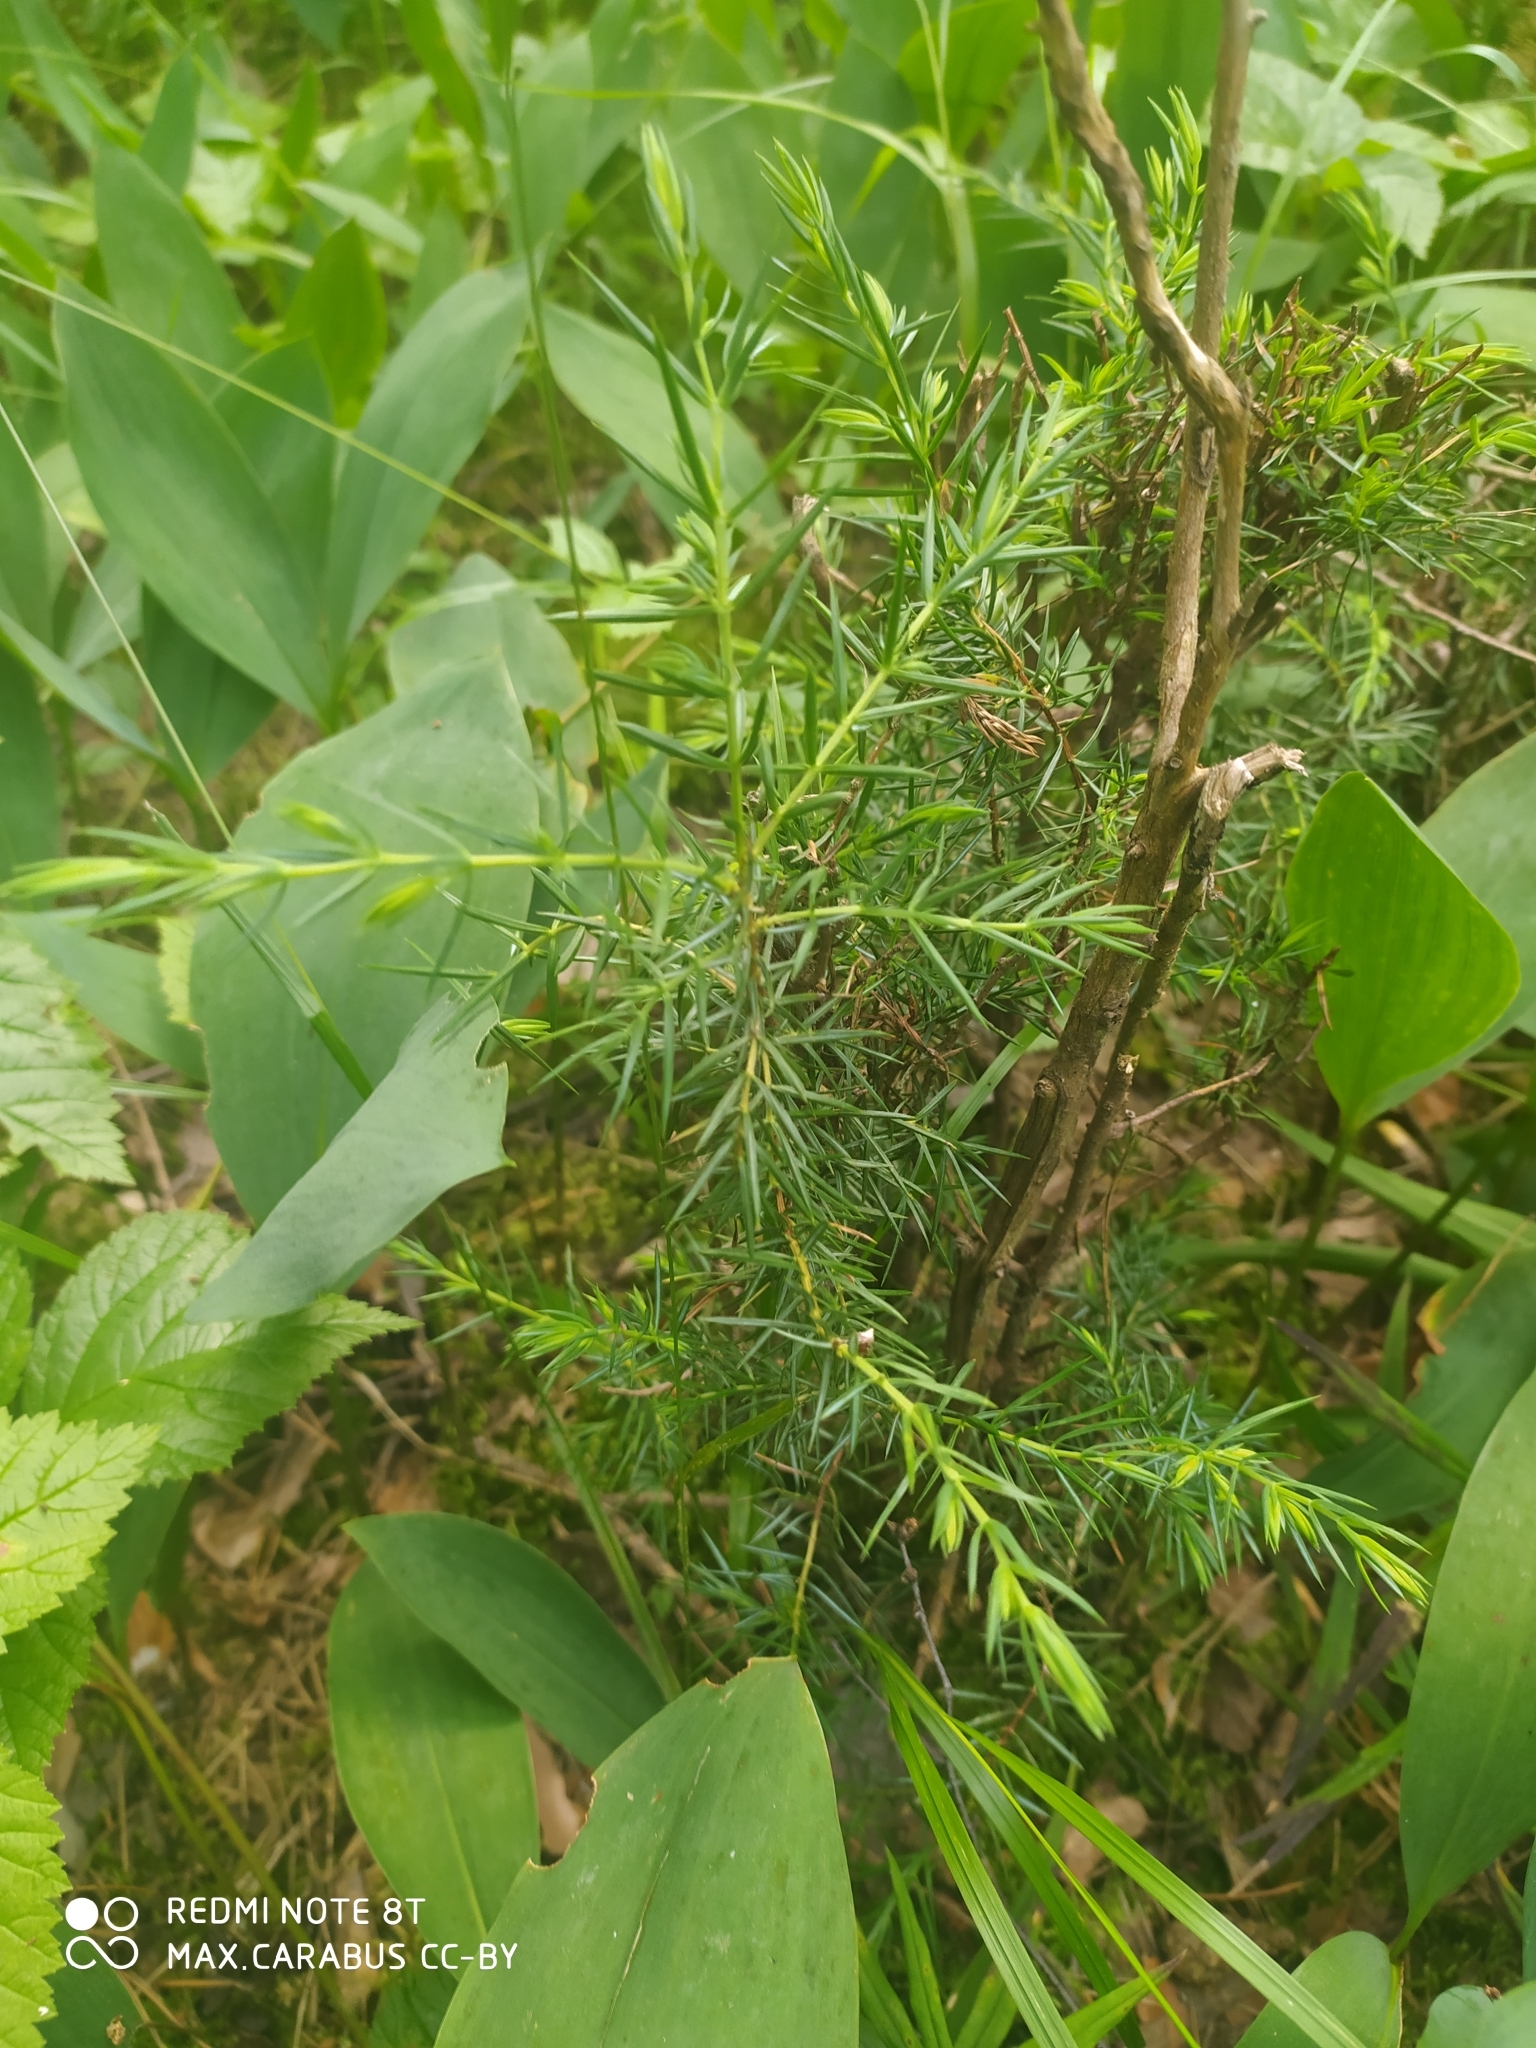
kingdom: Plantae
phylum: Tracheophyta
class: Pinopsida
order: Pinales
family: Cupressaceae
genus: Juniperus
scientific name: Juniperus communis
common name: Common juniper
